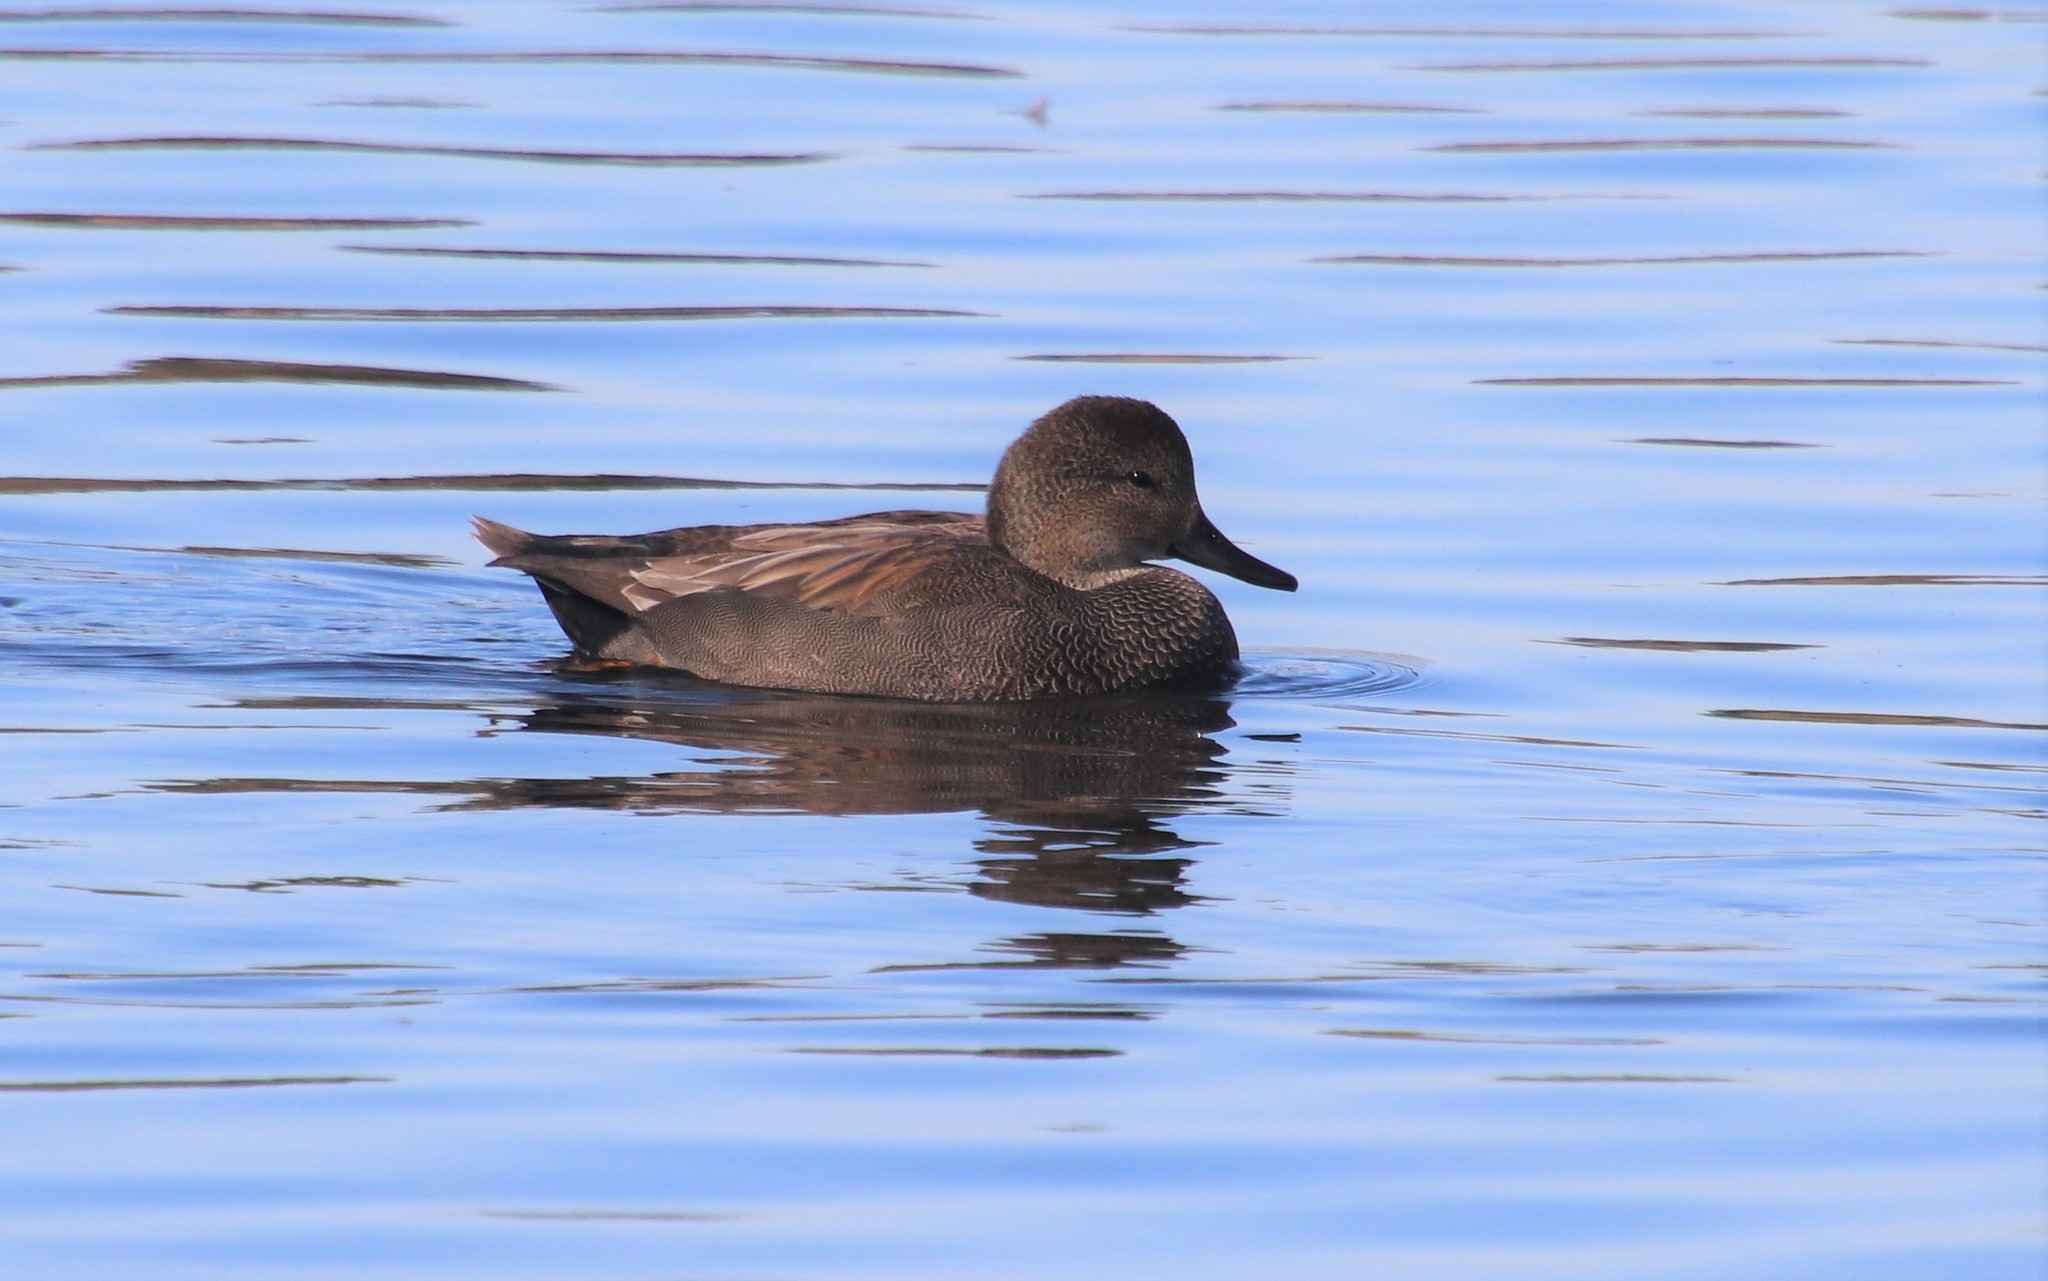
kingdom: Animalia
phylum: Chordata
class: Aves
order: Anseriformes
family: Anatidae
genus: Mareca
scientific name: Mareca strepera
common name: Gadwall
